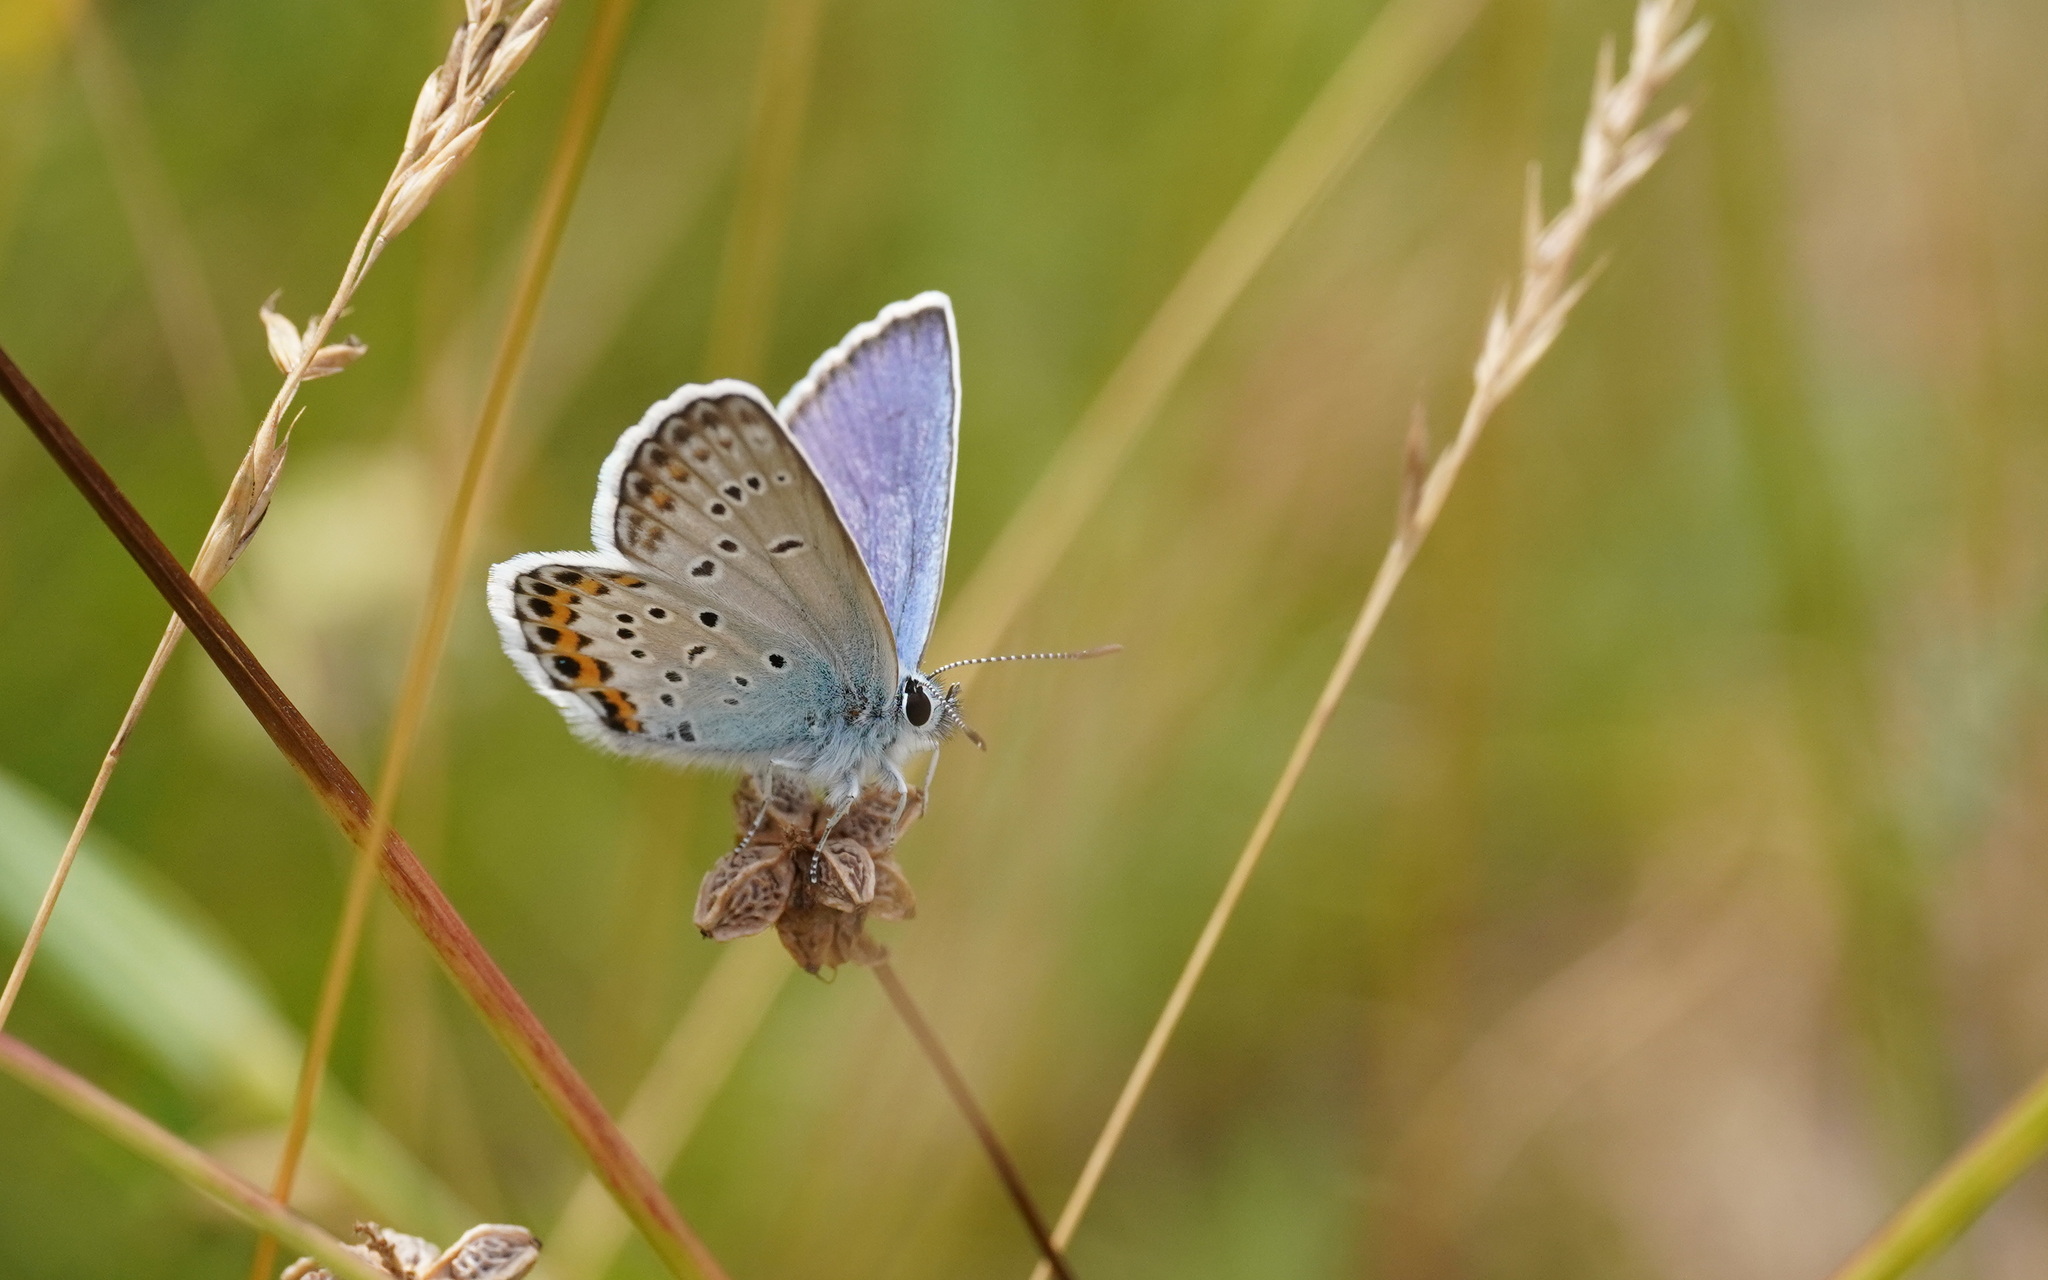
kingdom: Animalia
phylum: Arthropoda
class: Insecta
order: Lepidoptera
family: Lycaenidae
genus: Lycaeides
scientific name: Lycaeides idas
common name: Northern blue
